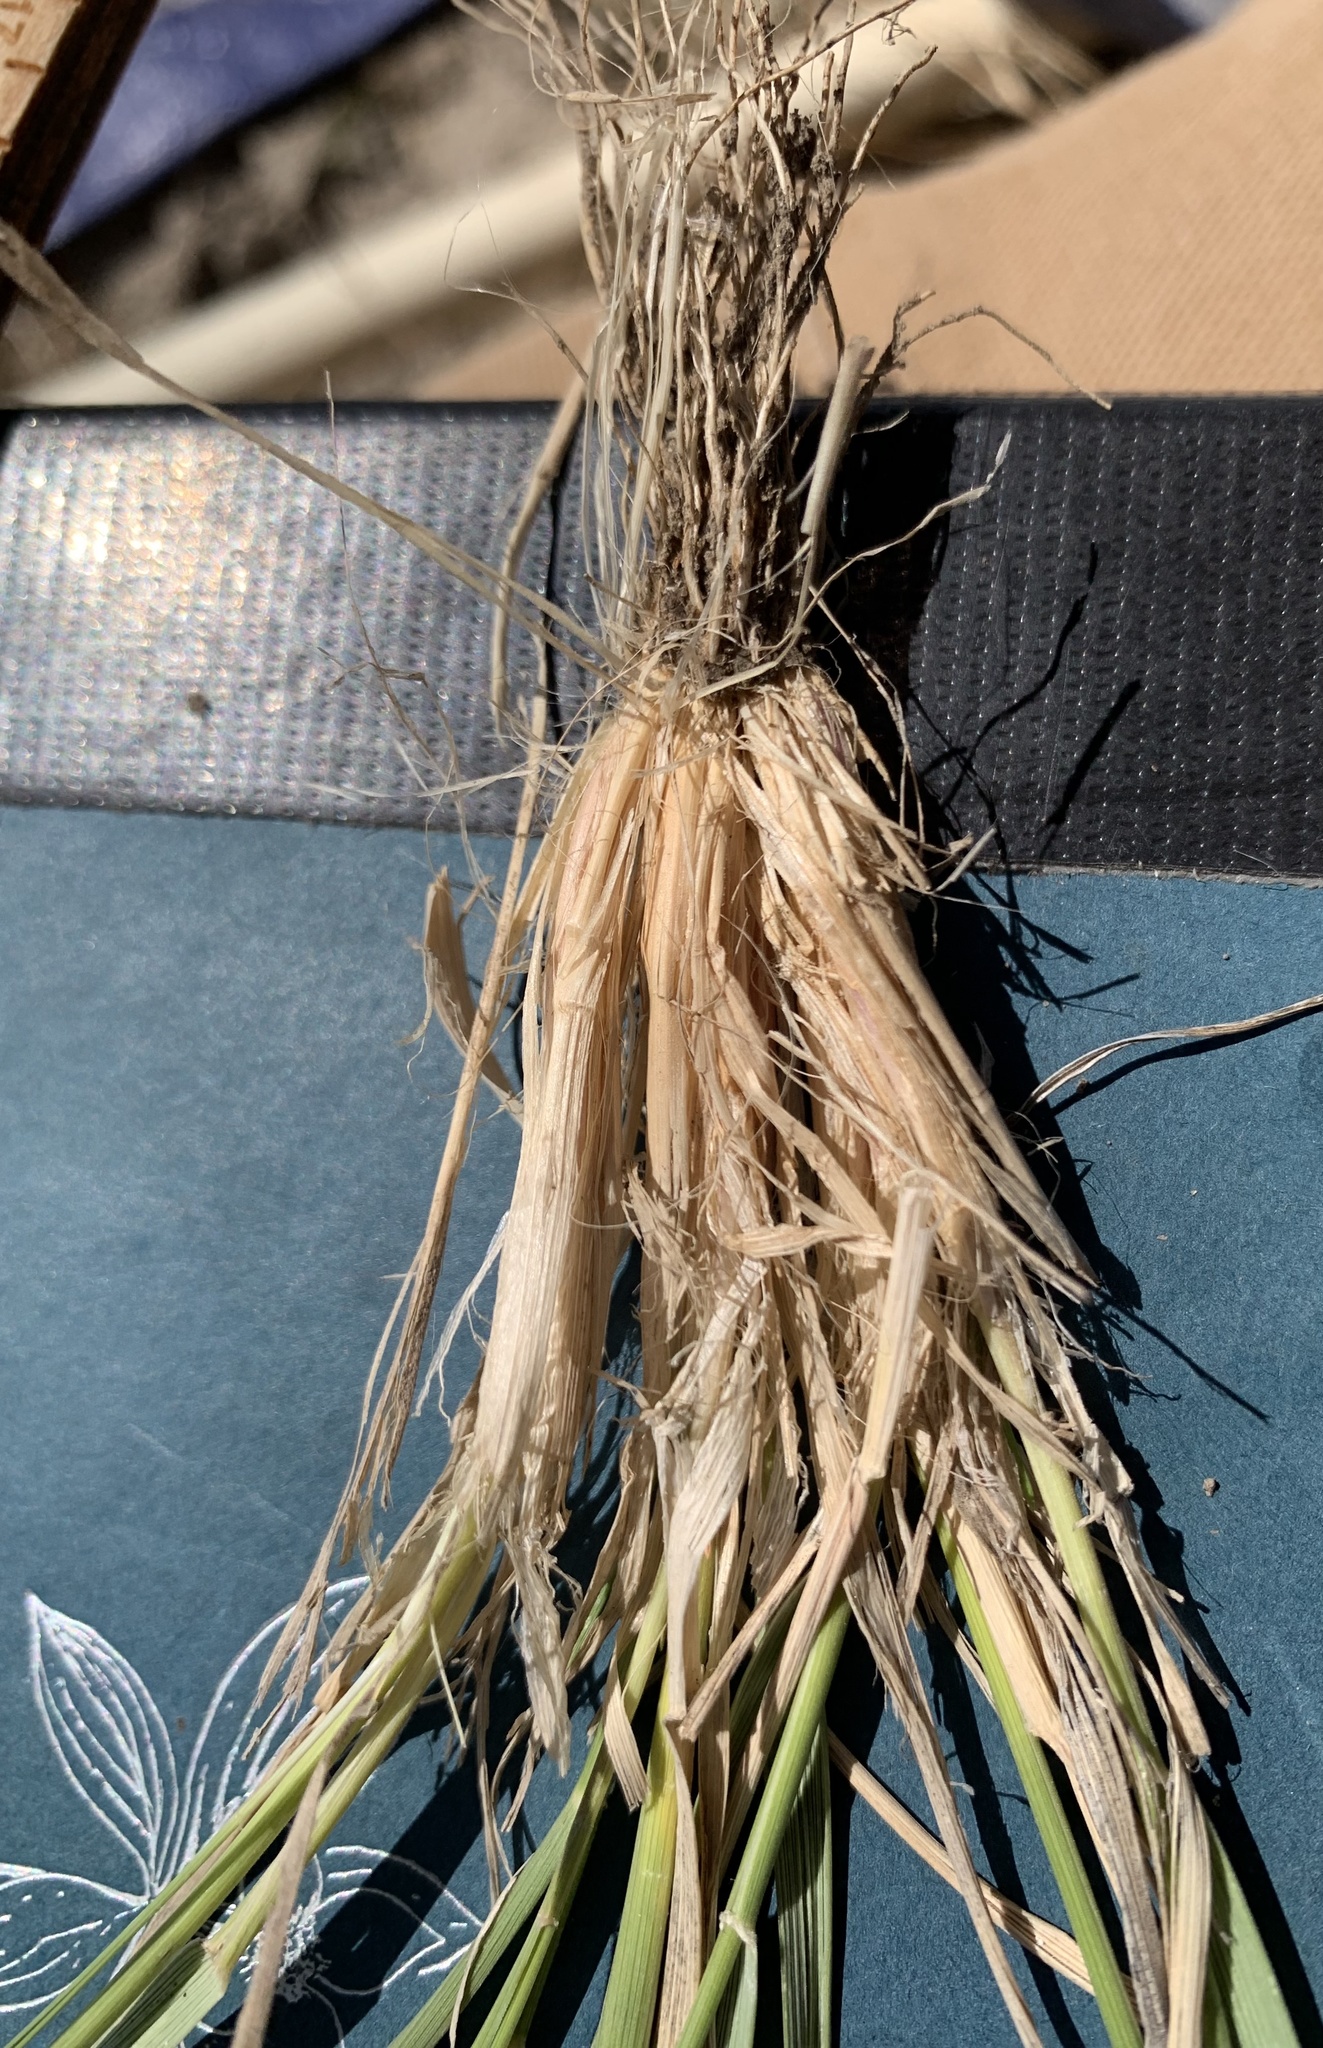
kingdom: Plantae
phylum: Tracheophyta
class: Liliopsida
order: Poales
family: Poaceae
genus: Elymus
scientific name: Elymus lanceolatus
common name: Thick-spike wheatgrass
